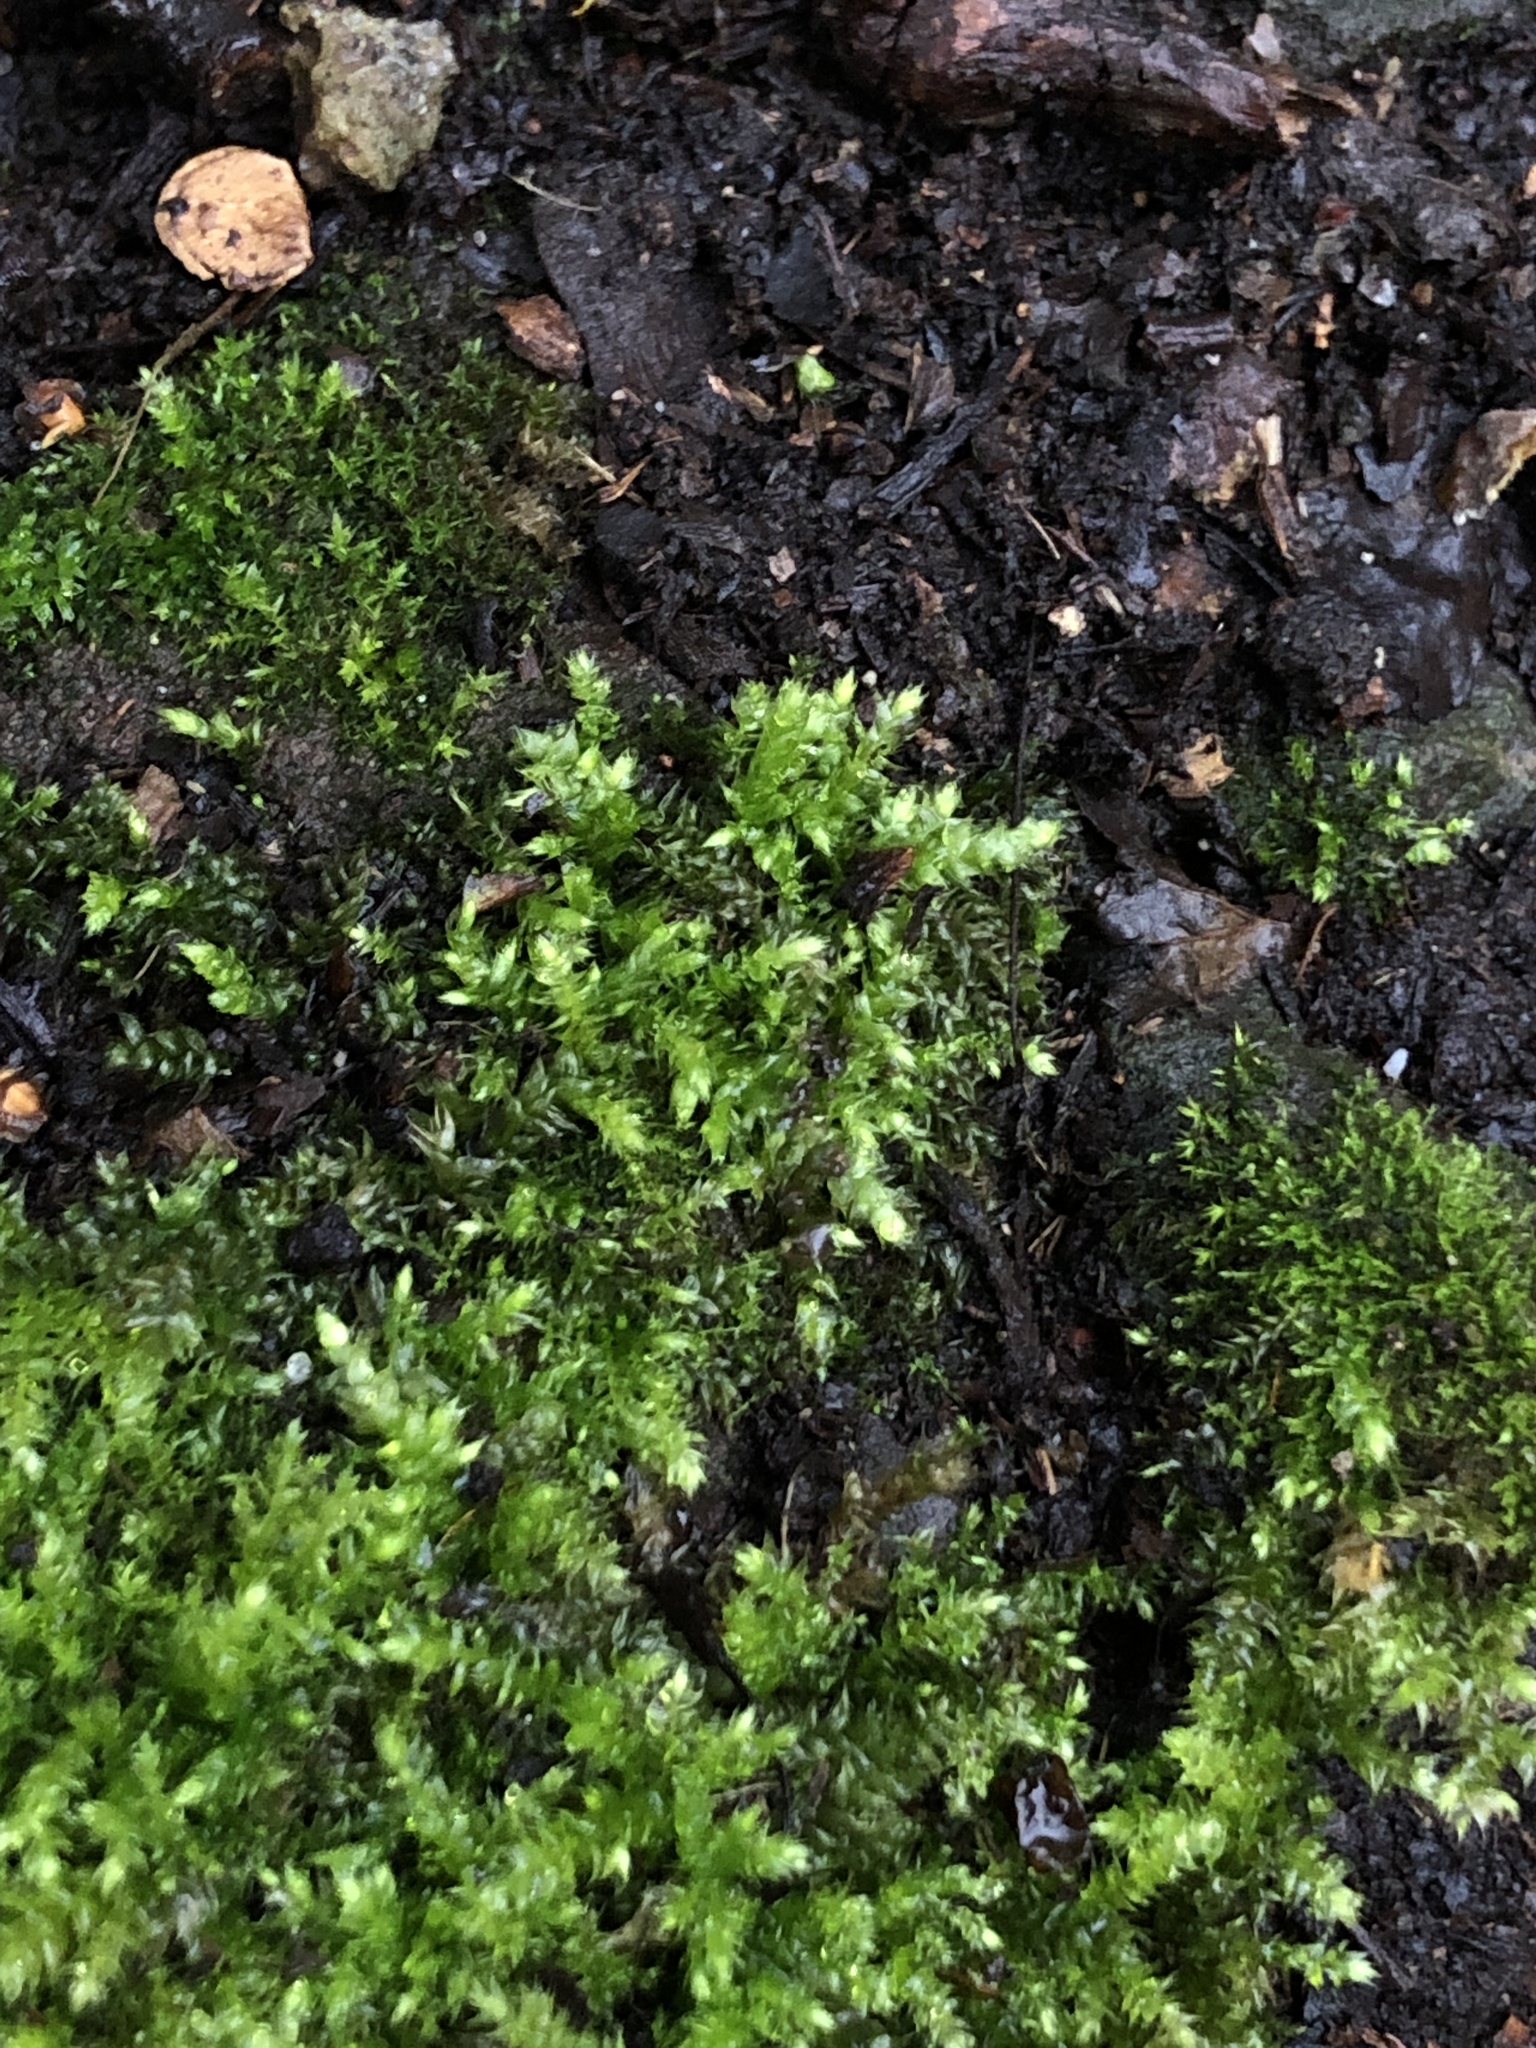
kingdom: Plantae
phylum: Bryophyta
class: Bryopsida
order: Hypnales
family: Brachytheciaceae
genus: Brachythecium
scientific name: Brachythecium rutabulum
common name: Rough-stalked feather-moss
